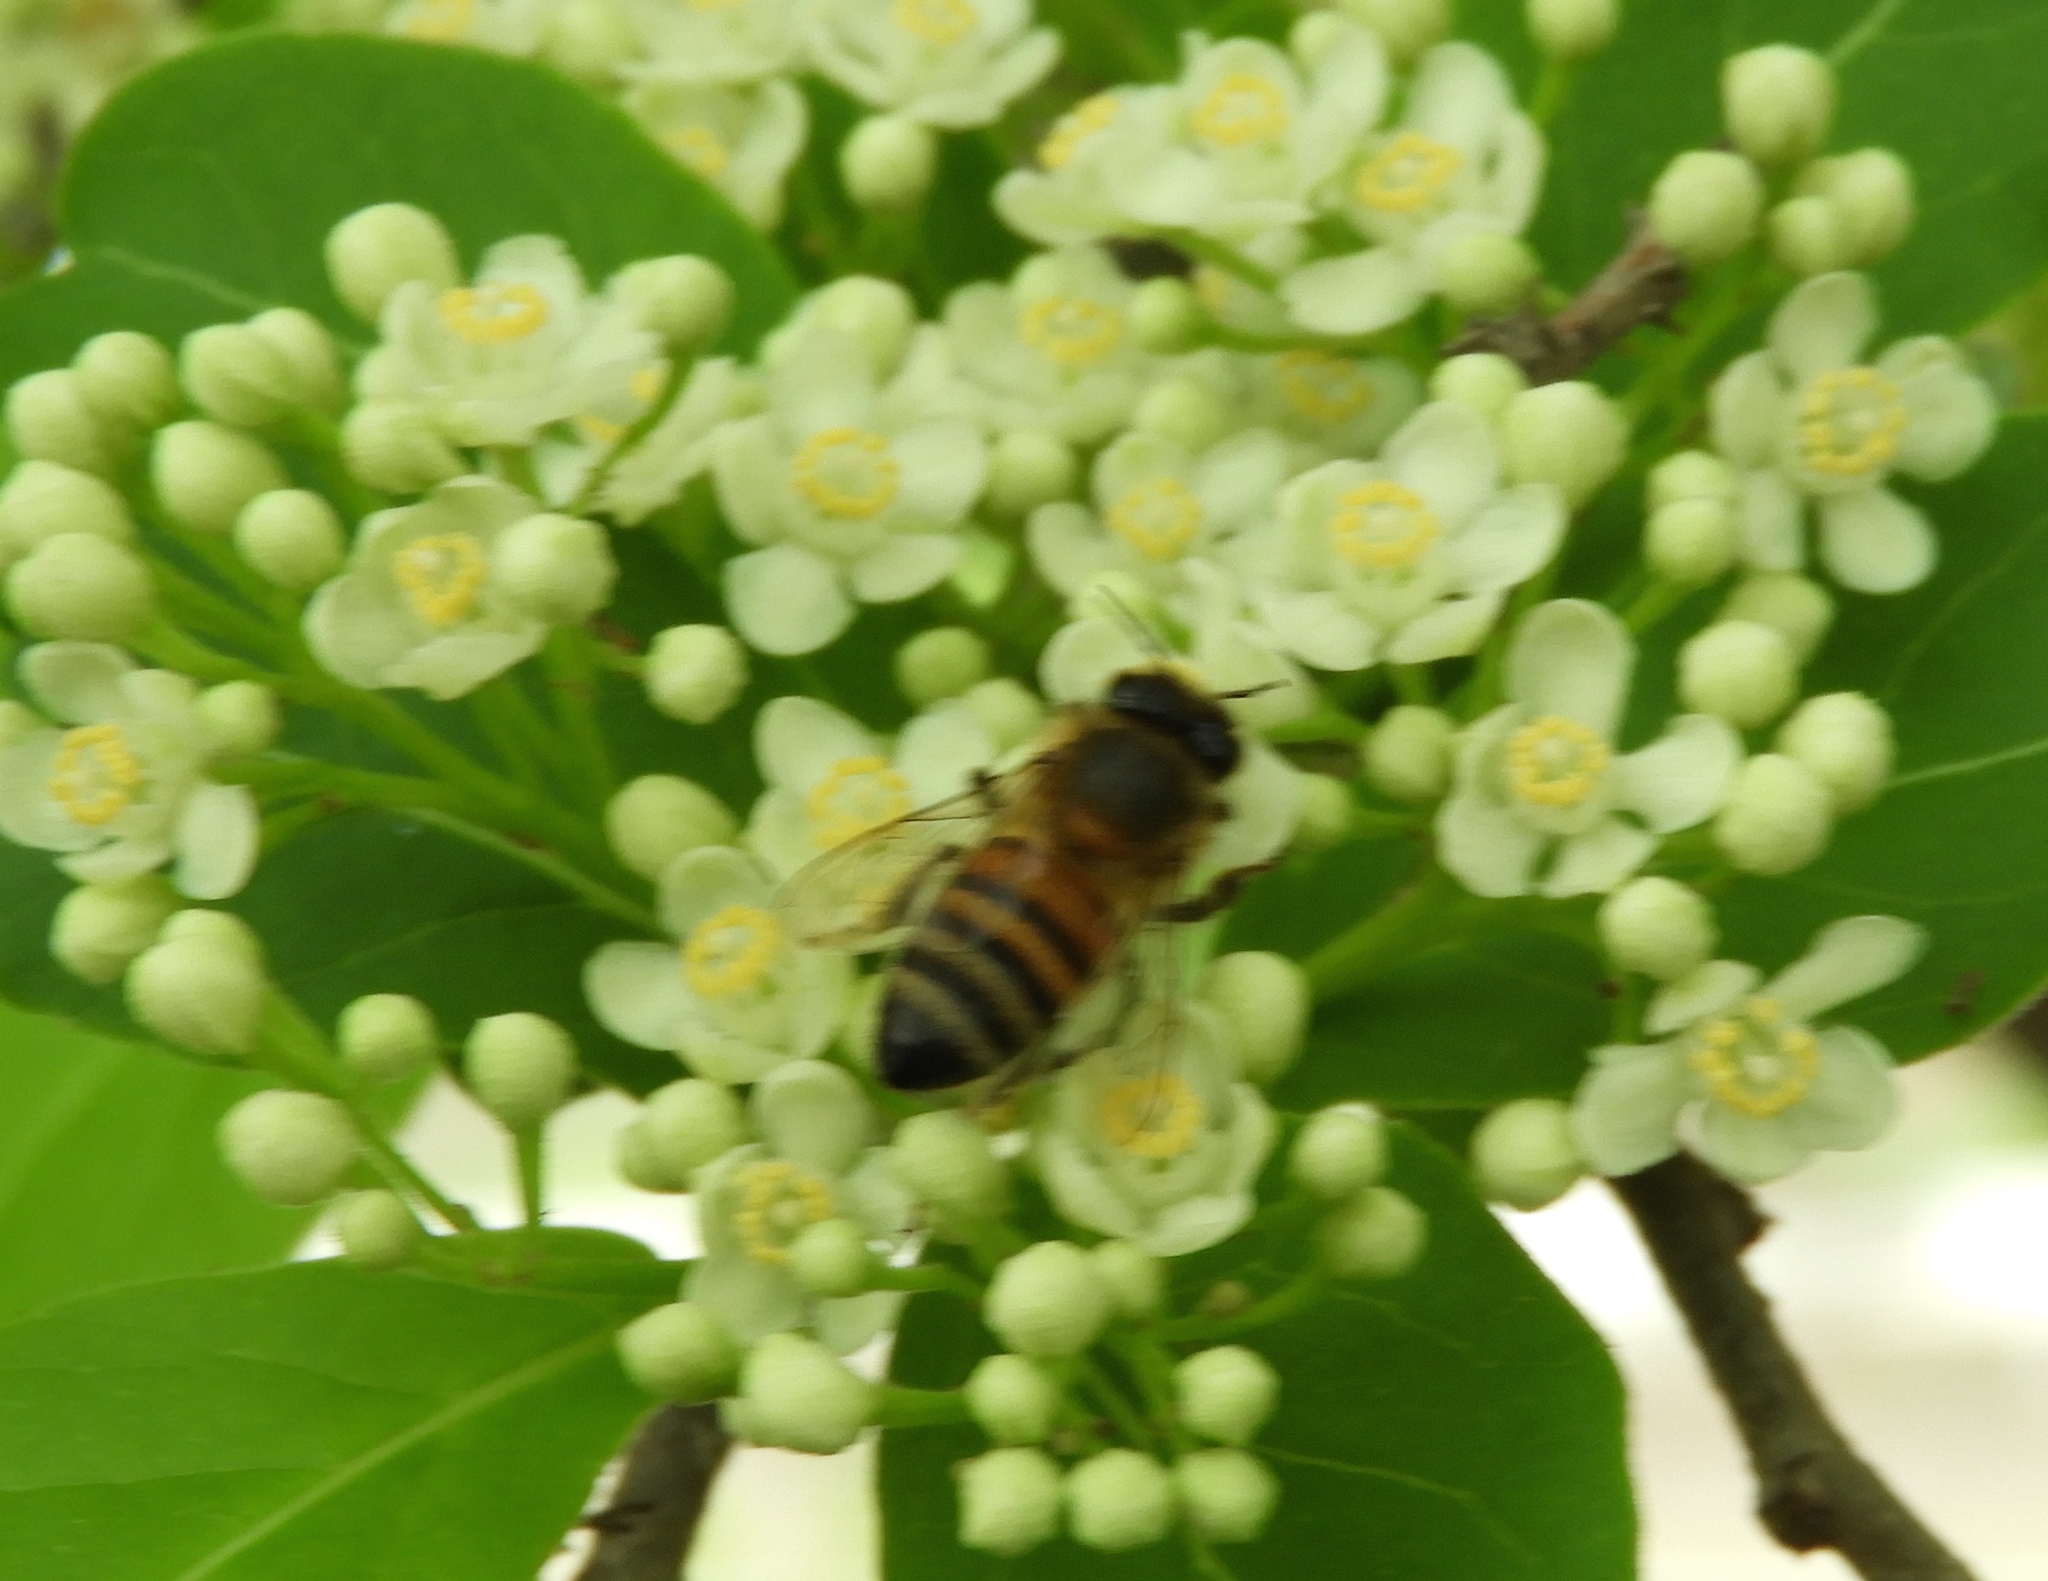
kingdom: Animalia
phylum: Arthropoda
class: Insecta
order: Hymenoptera
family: Apidae
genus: Apis
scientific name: Apis mellifera
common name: Honey bee
